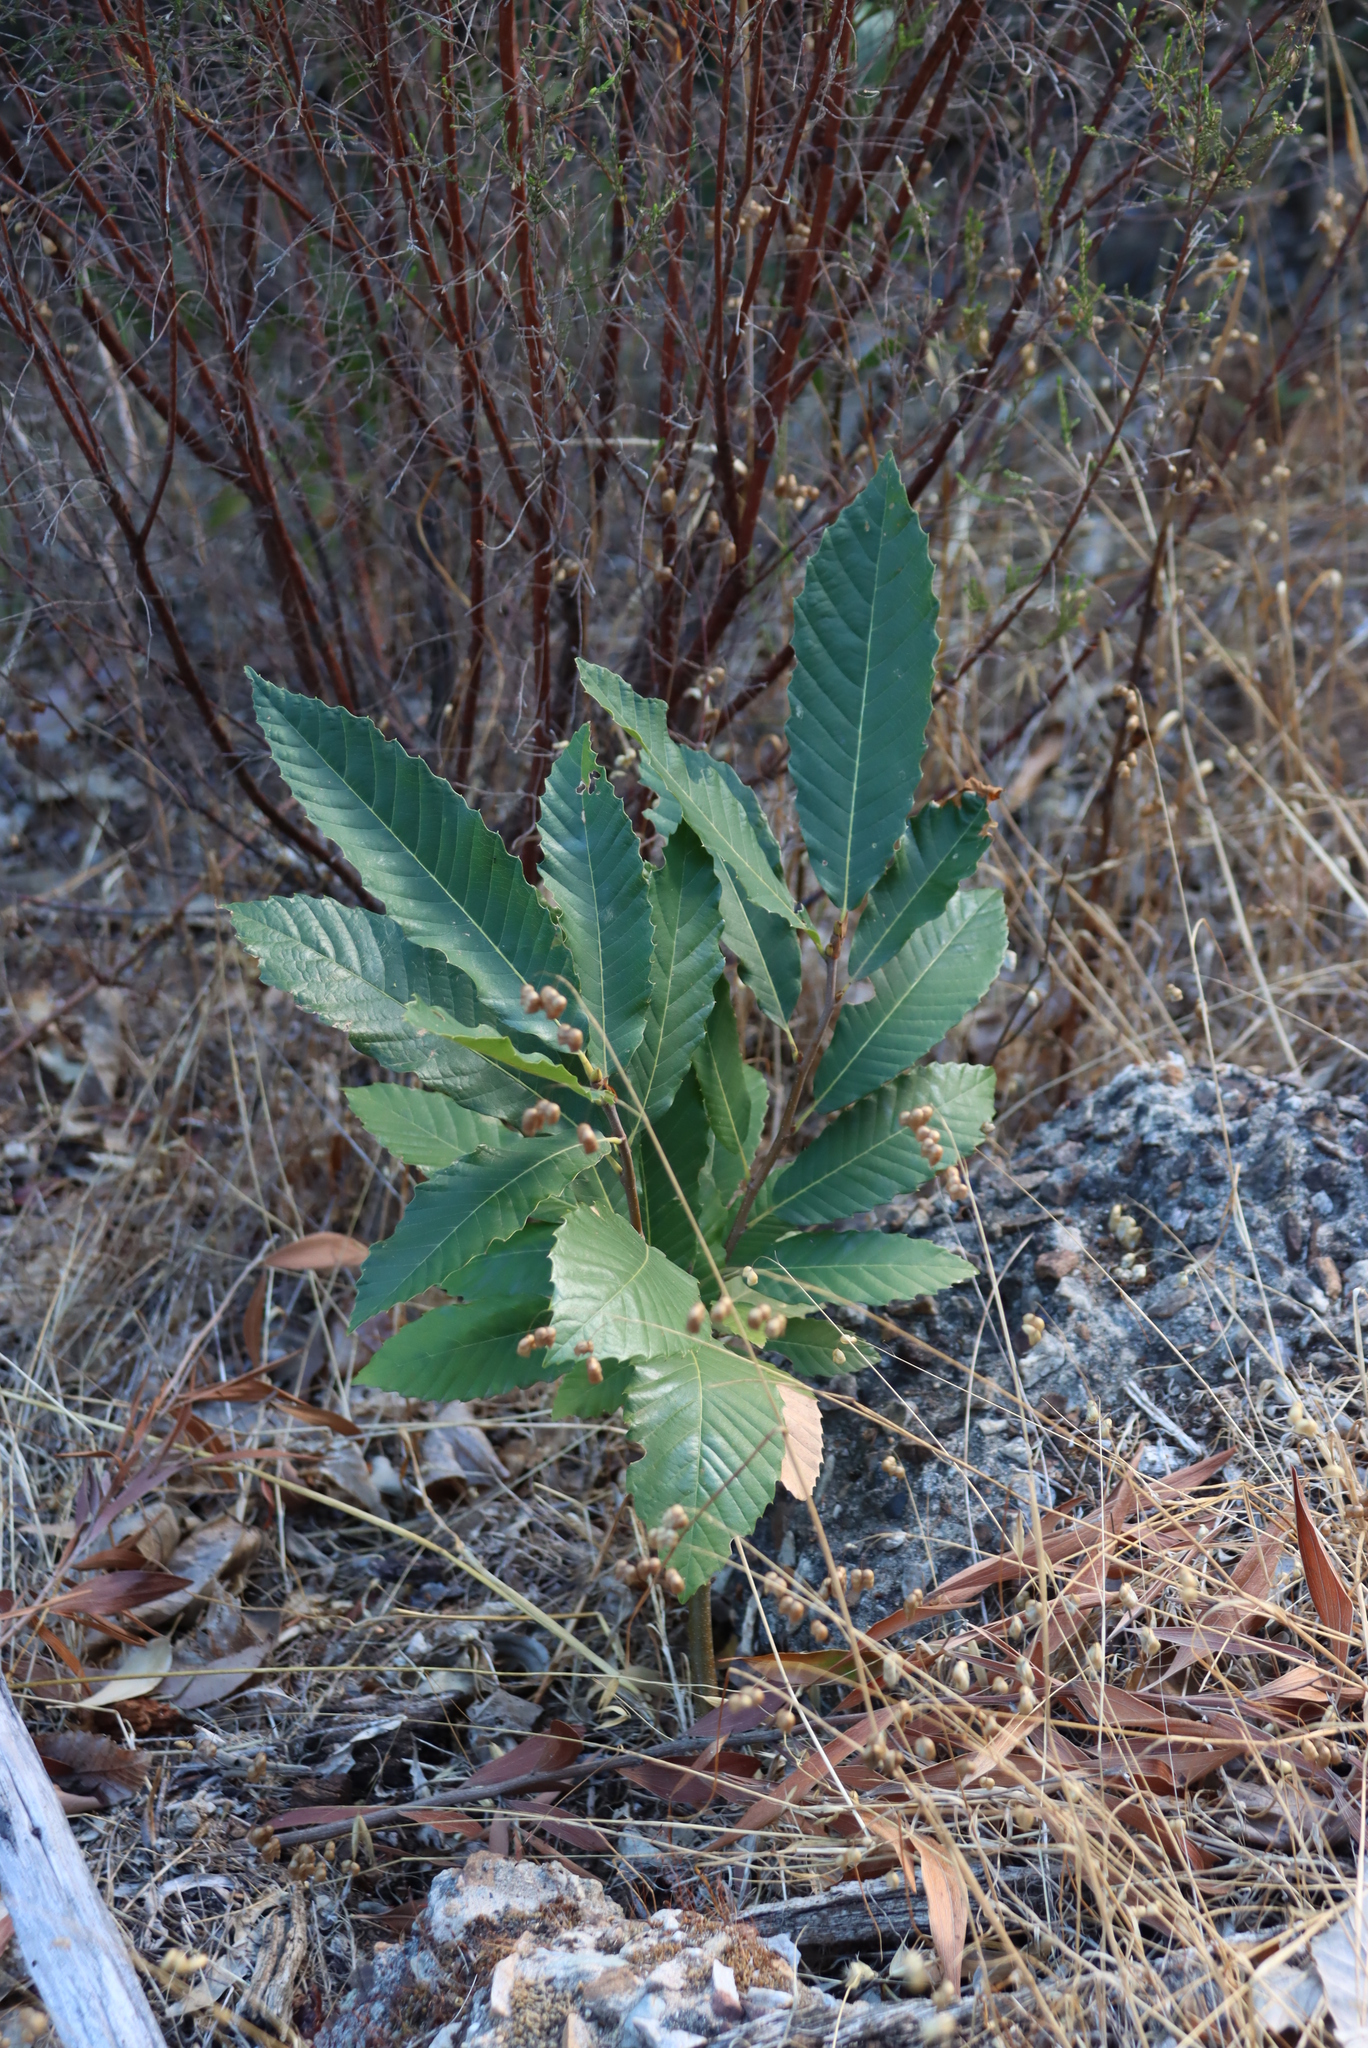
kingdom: Plantae
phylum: Tracheophyta
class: Magnoliopsida
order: Fagales
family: Fagaceae
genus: Castanea
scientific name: Castanea sativa
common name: Sweet chestnut
